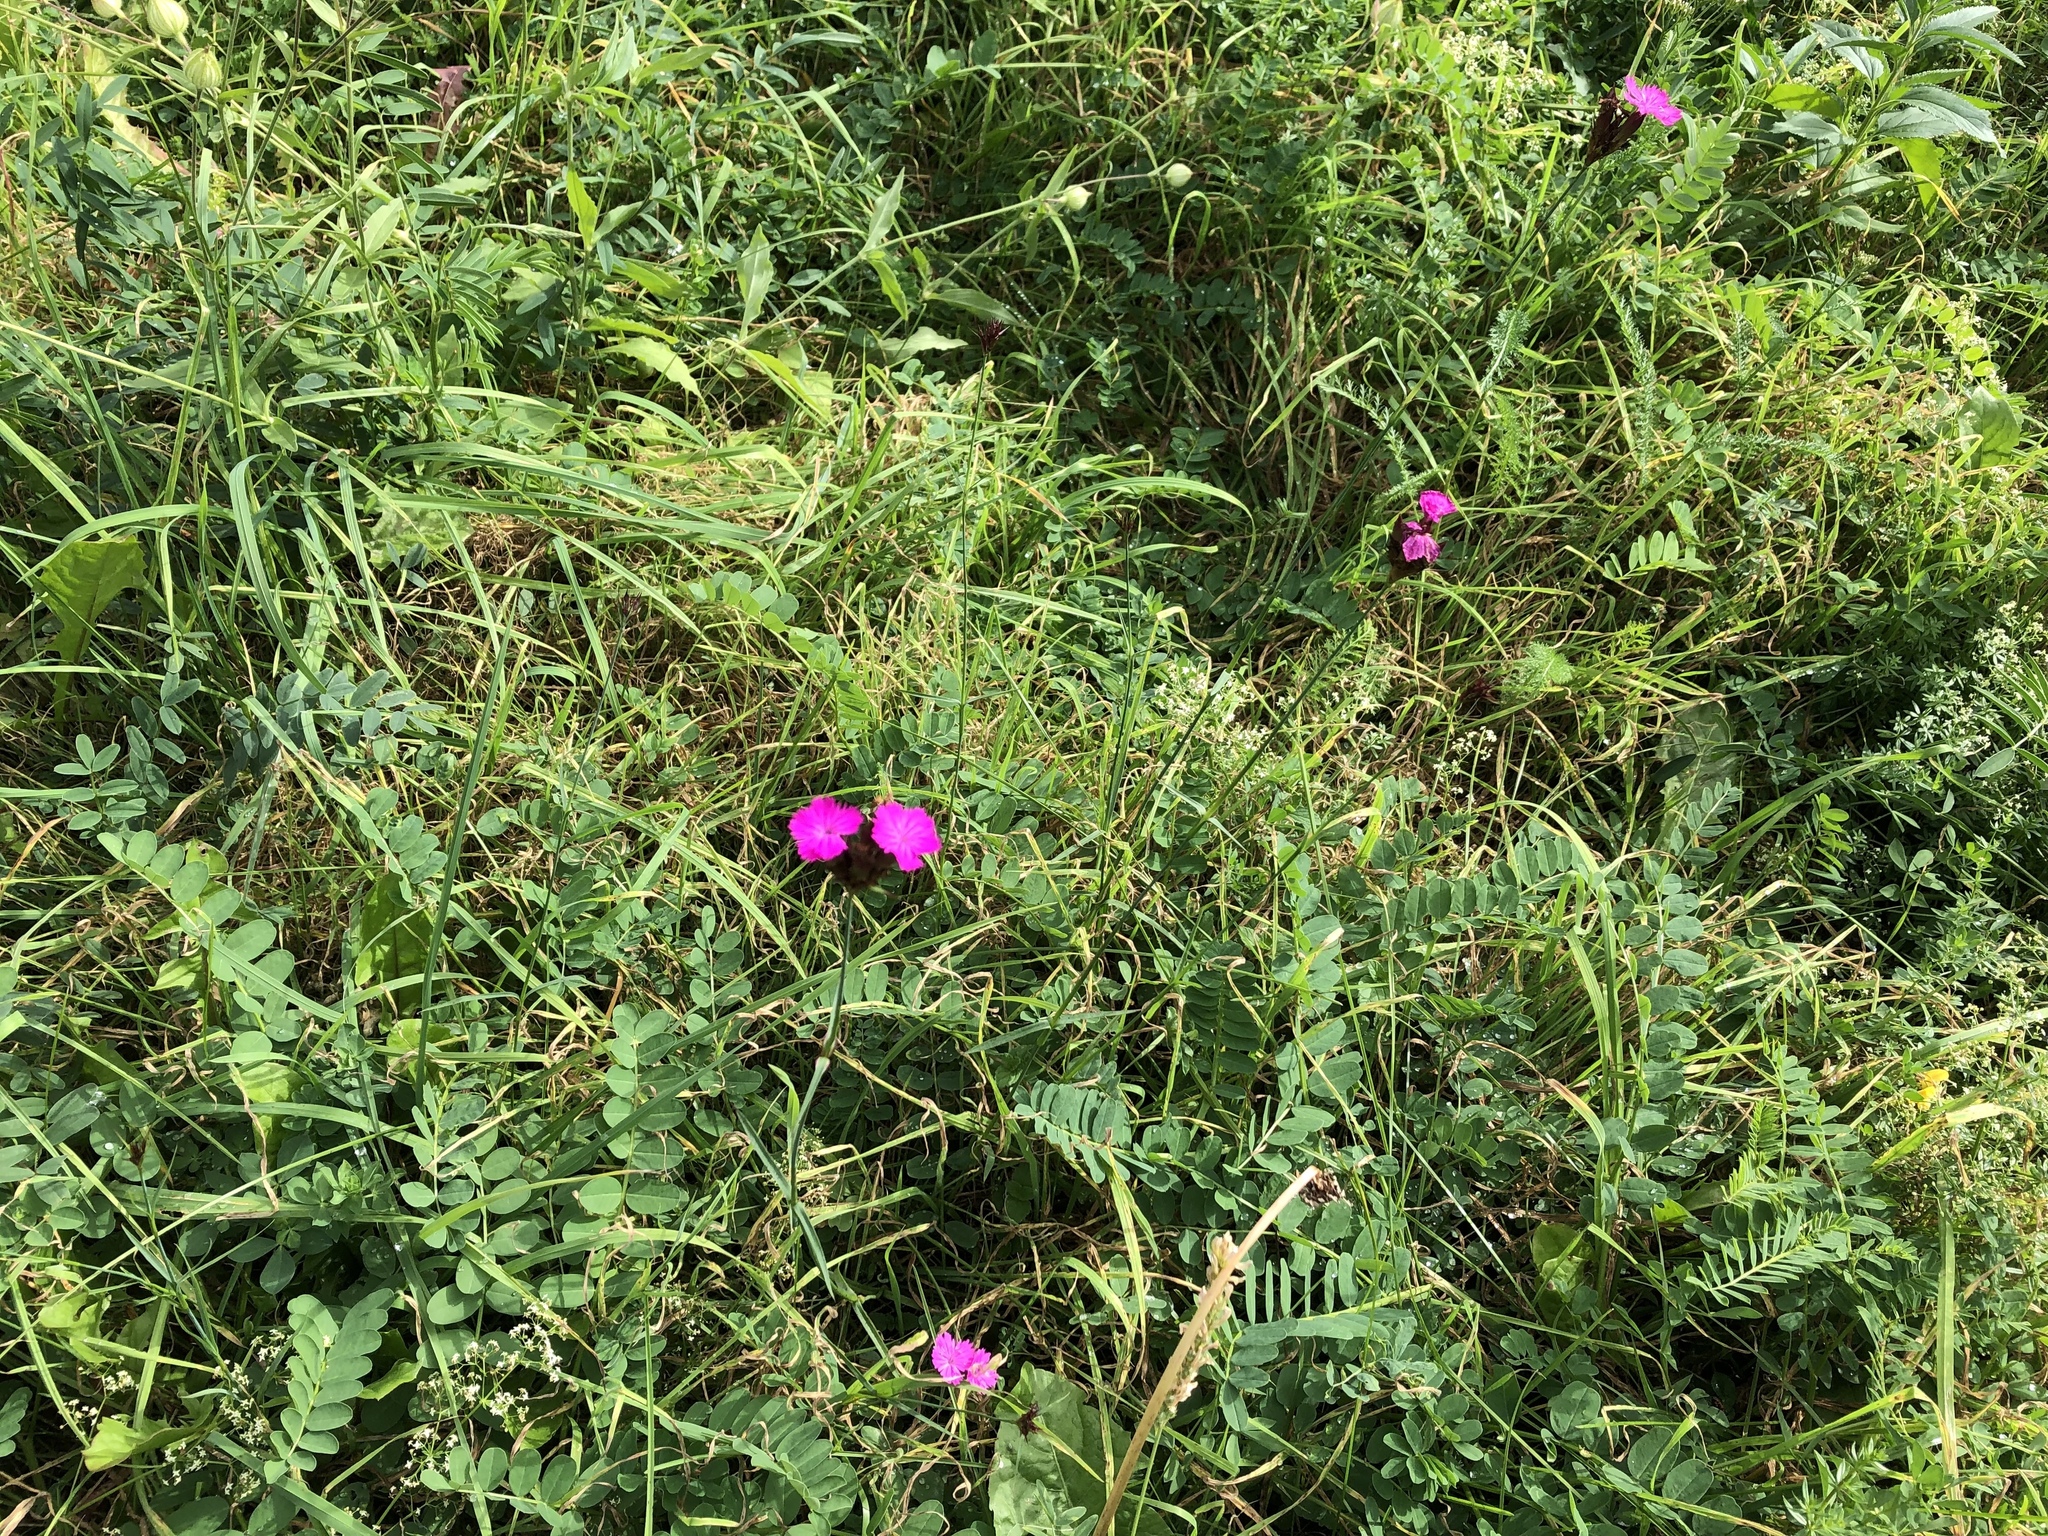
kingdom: Plantae
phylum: Tracheophyta
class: Magnoliopsida
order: Caryophyllales
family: Caryophyllaceae
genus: Dianthus
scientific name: Dianthus carthusianorum
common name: Carthusian pink
